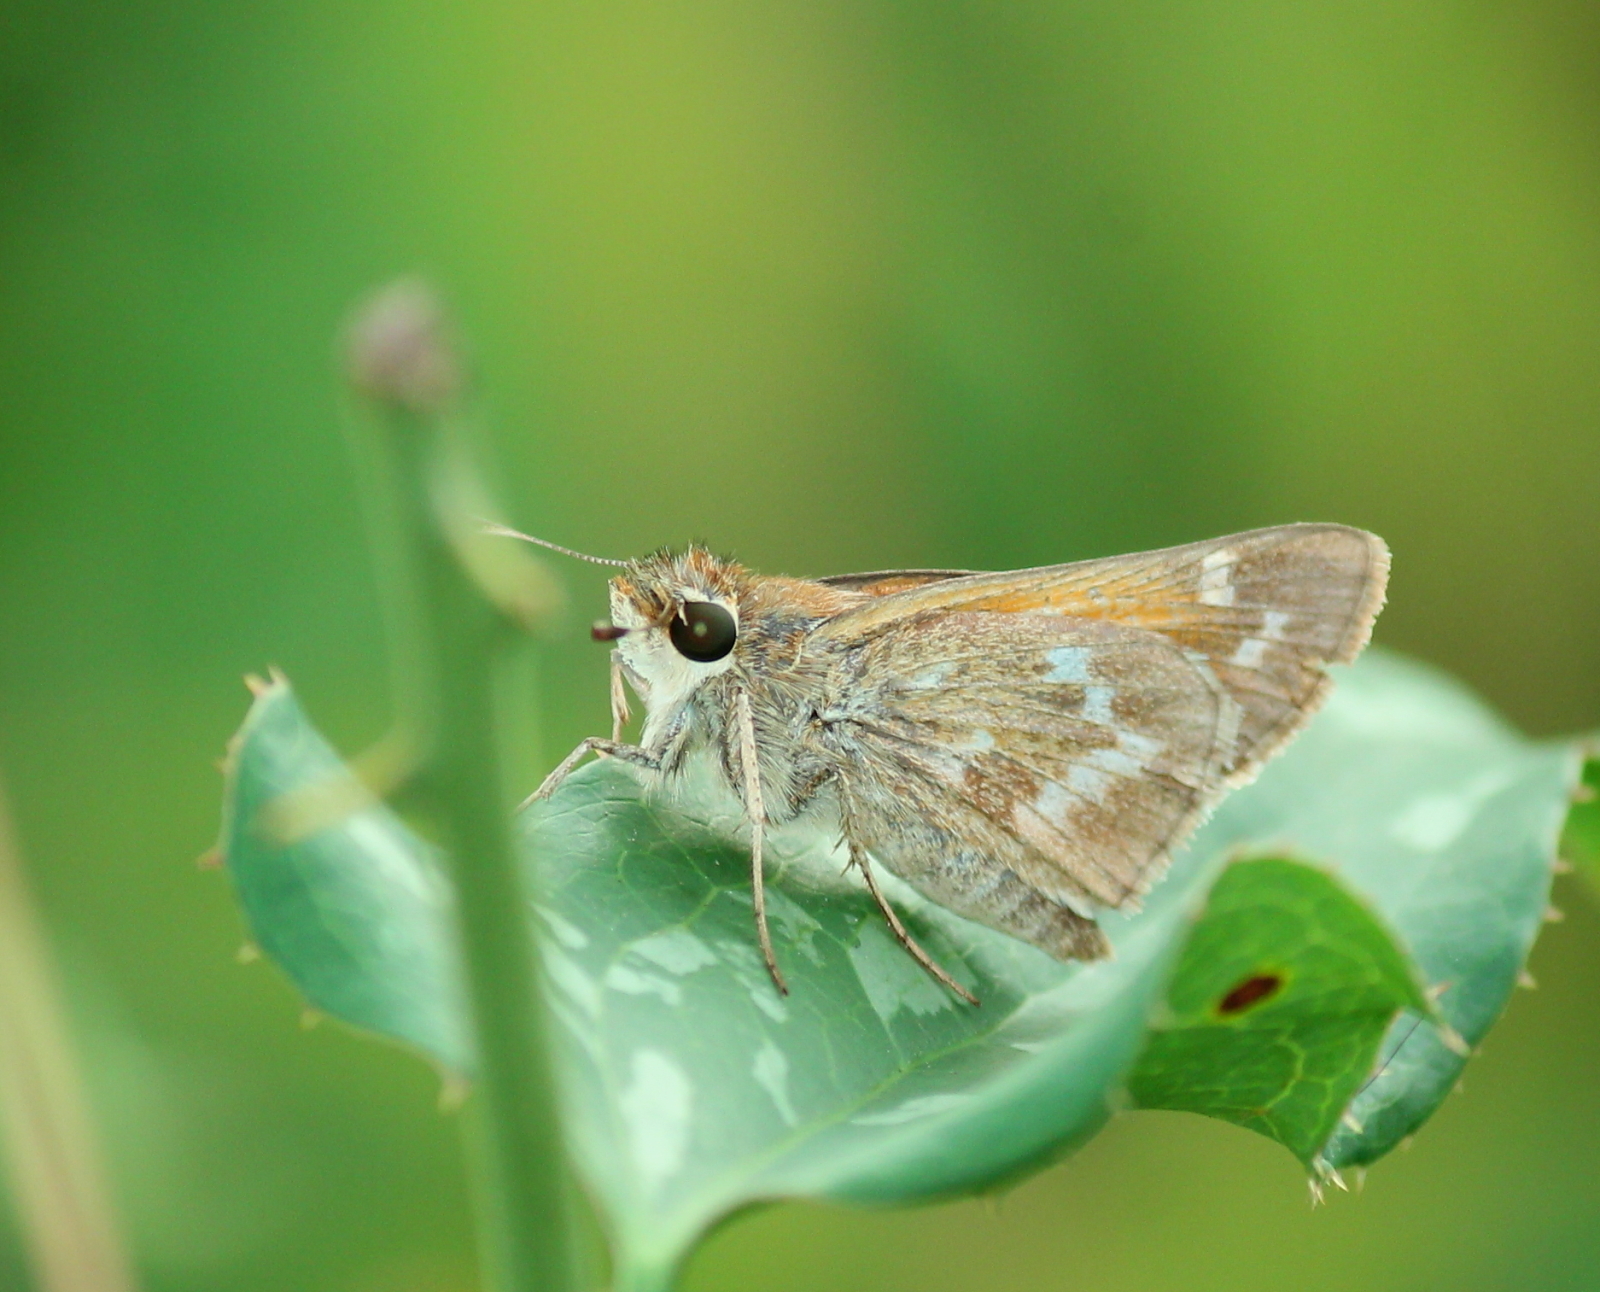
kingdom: Animalia
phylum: Arthropoda
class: Insecta
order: Lepidoptera
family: Hesperiidae
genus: Atalopedes
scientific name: Atalopedes
